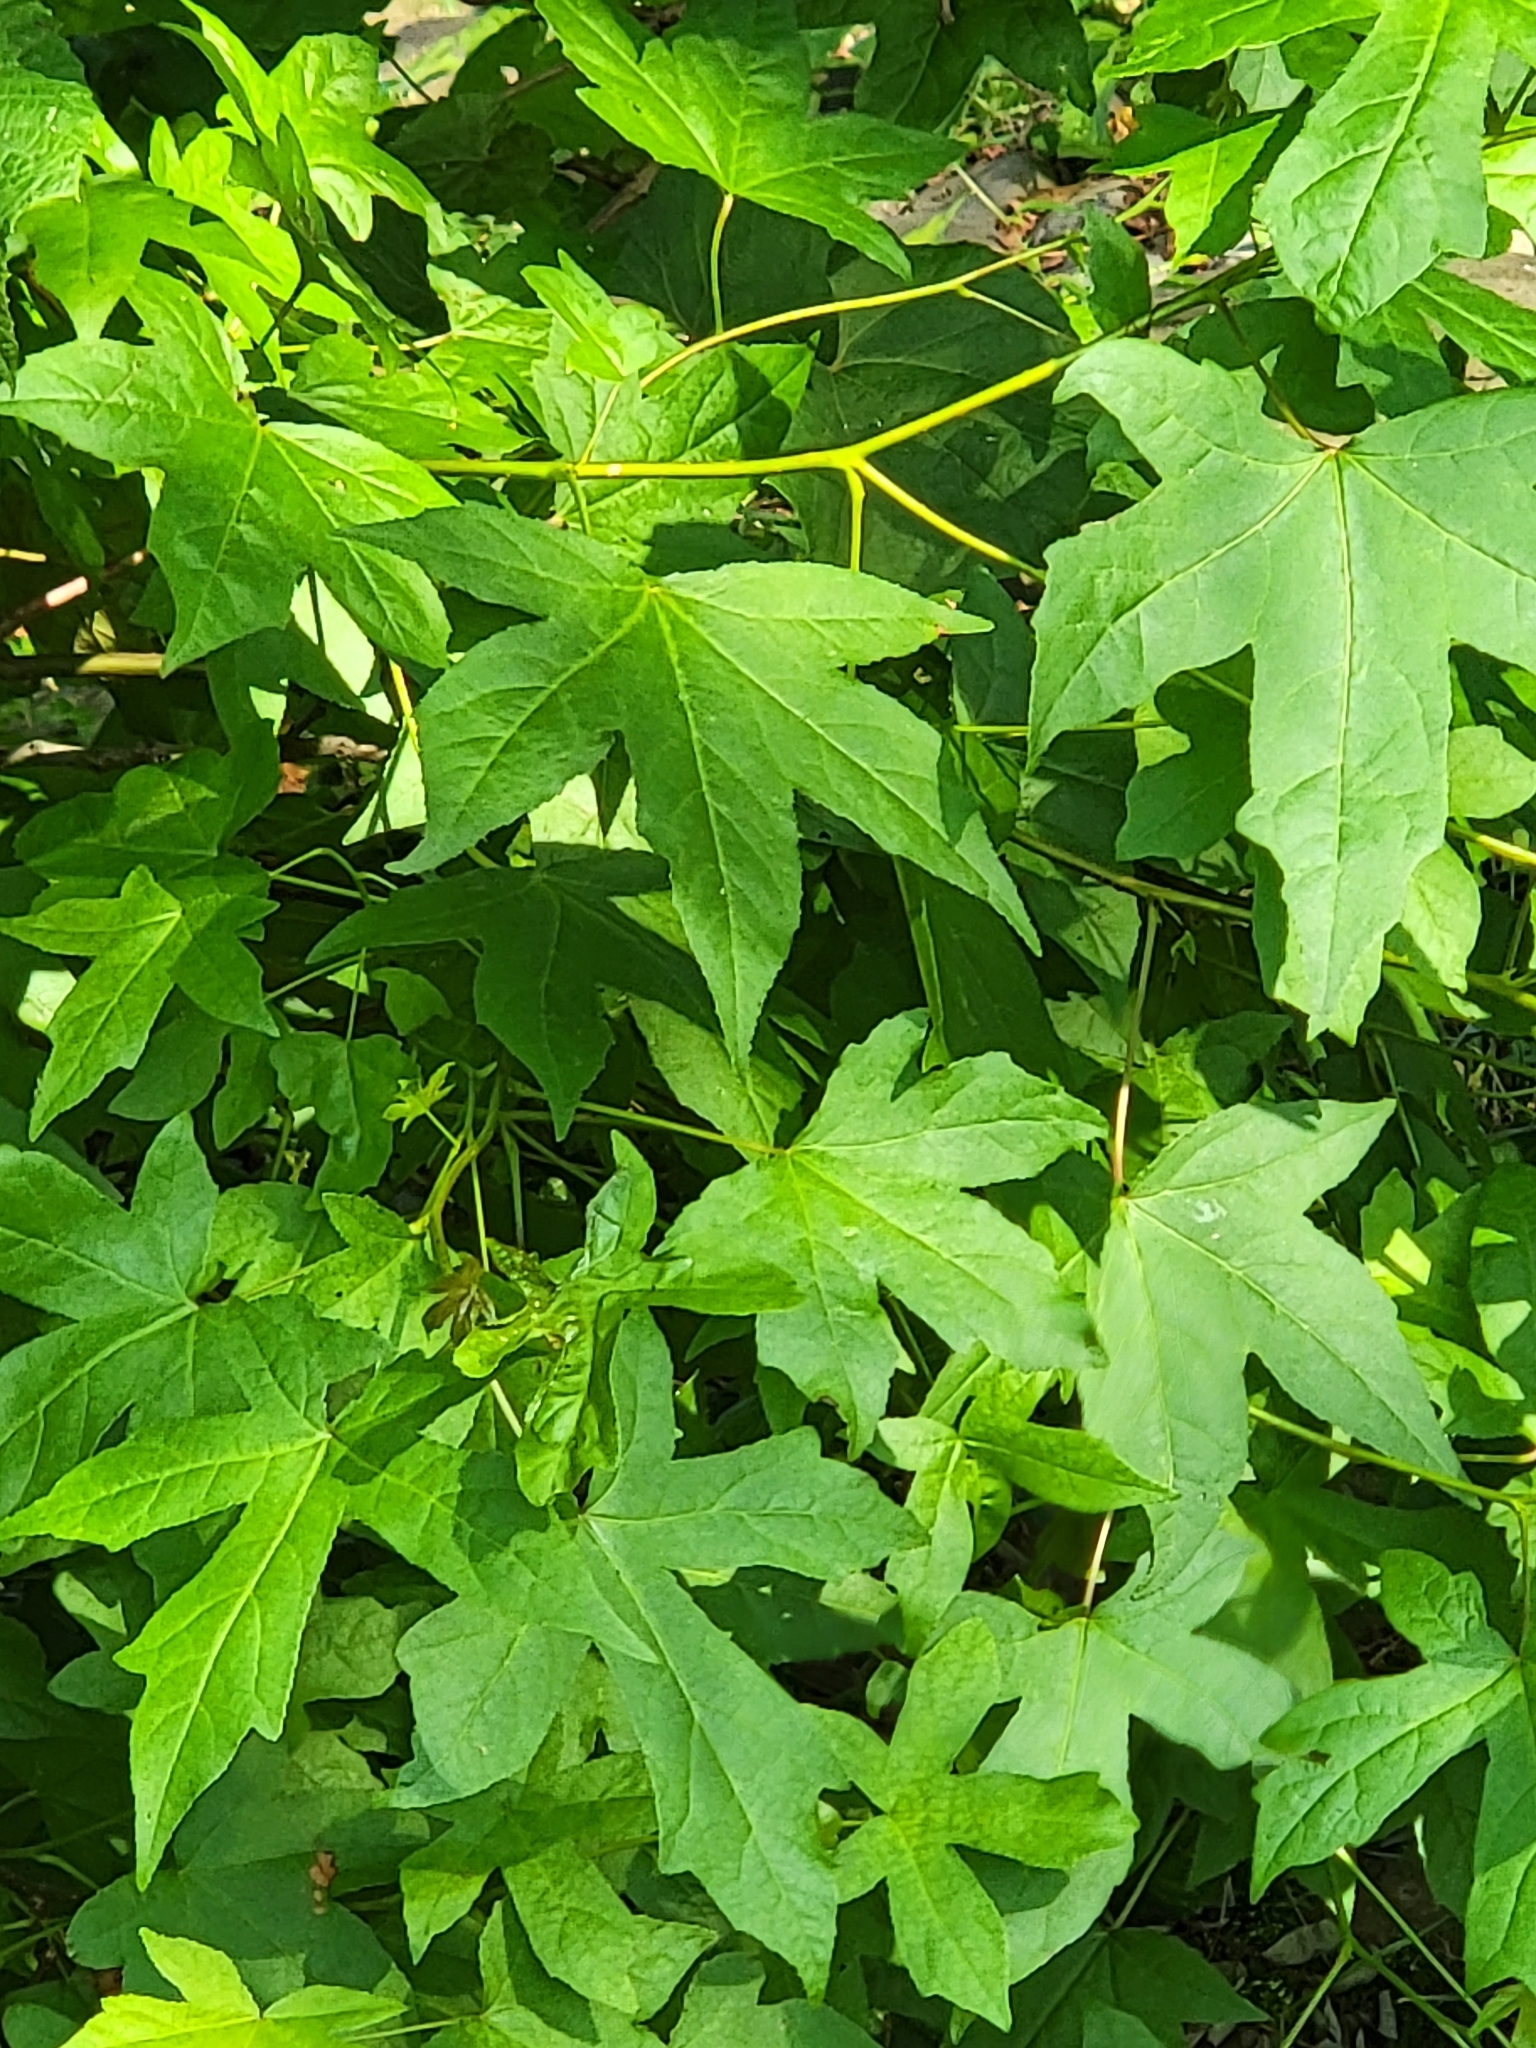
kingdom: Plantae
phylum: Tracheophyta
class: Magnoliopsida
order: Saxifragales
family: Altingiaceae
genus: Liquidambar
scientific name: Liquidambar styraciflua
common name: Sweet gum
